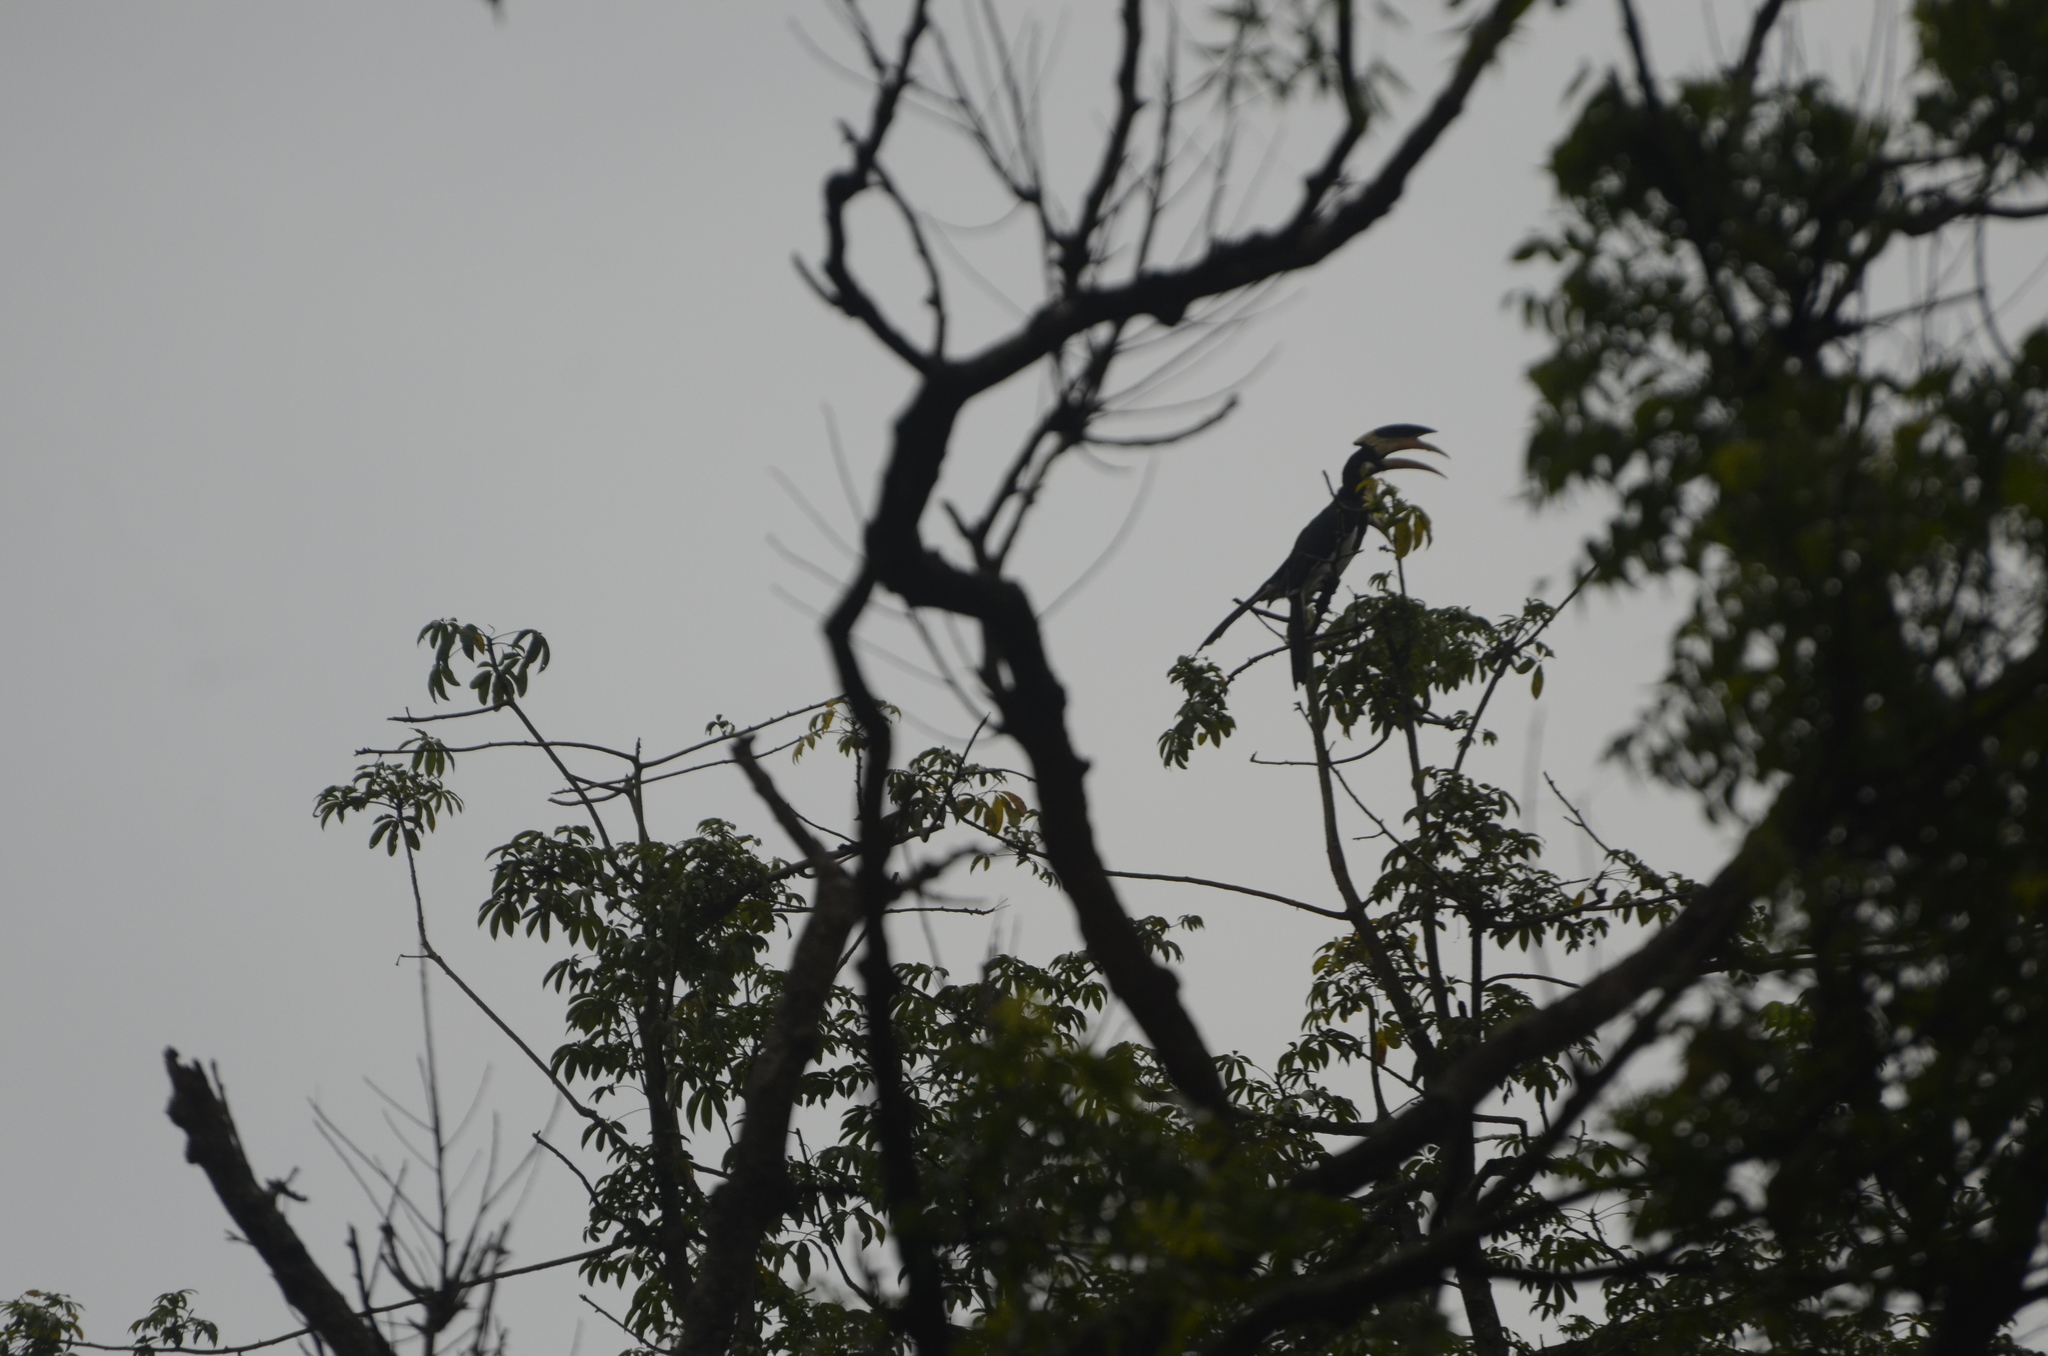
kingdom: Animalia
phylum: Chordata
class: Aves
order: Bucerotiformes
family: Bucerotidae
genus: Anthracoceros
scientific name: Anthracoceros coronatus
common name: Malabar pied hornbill
